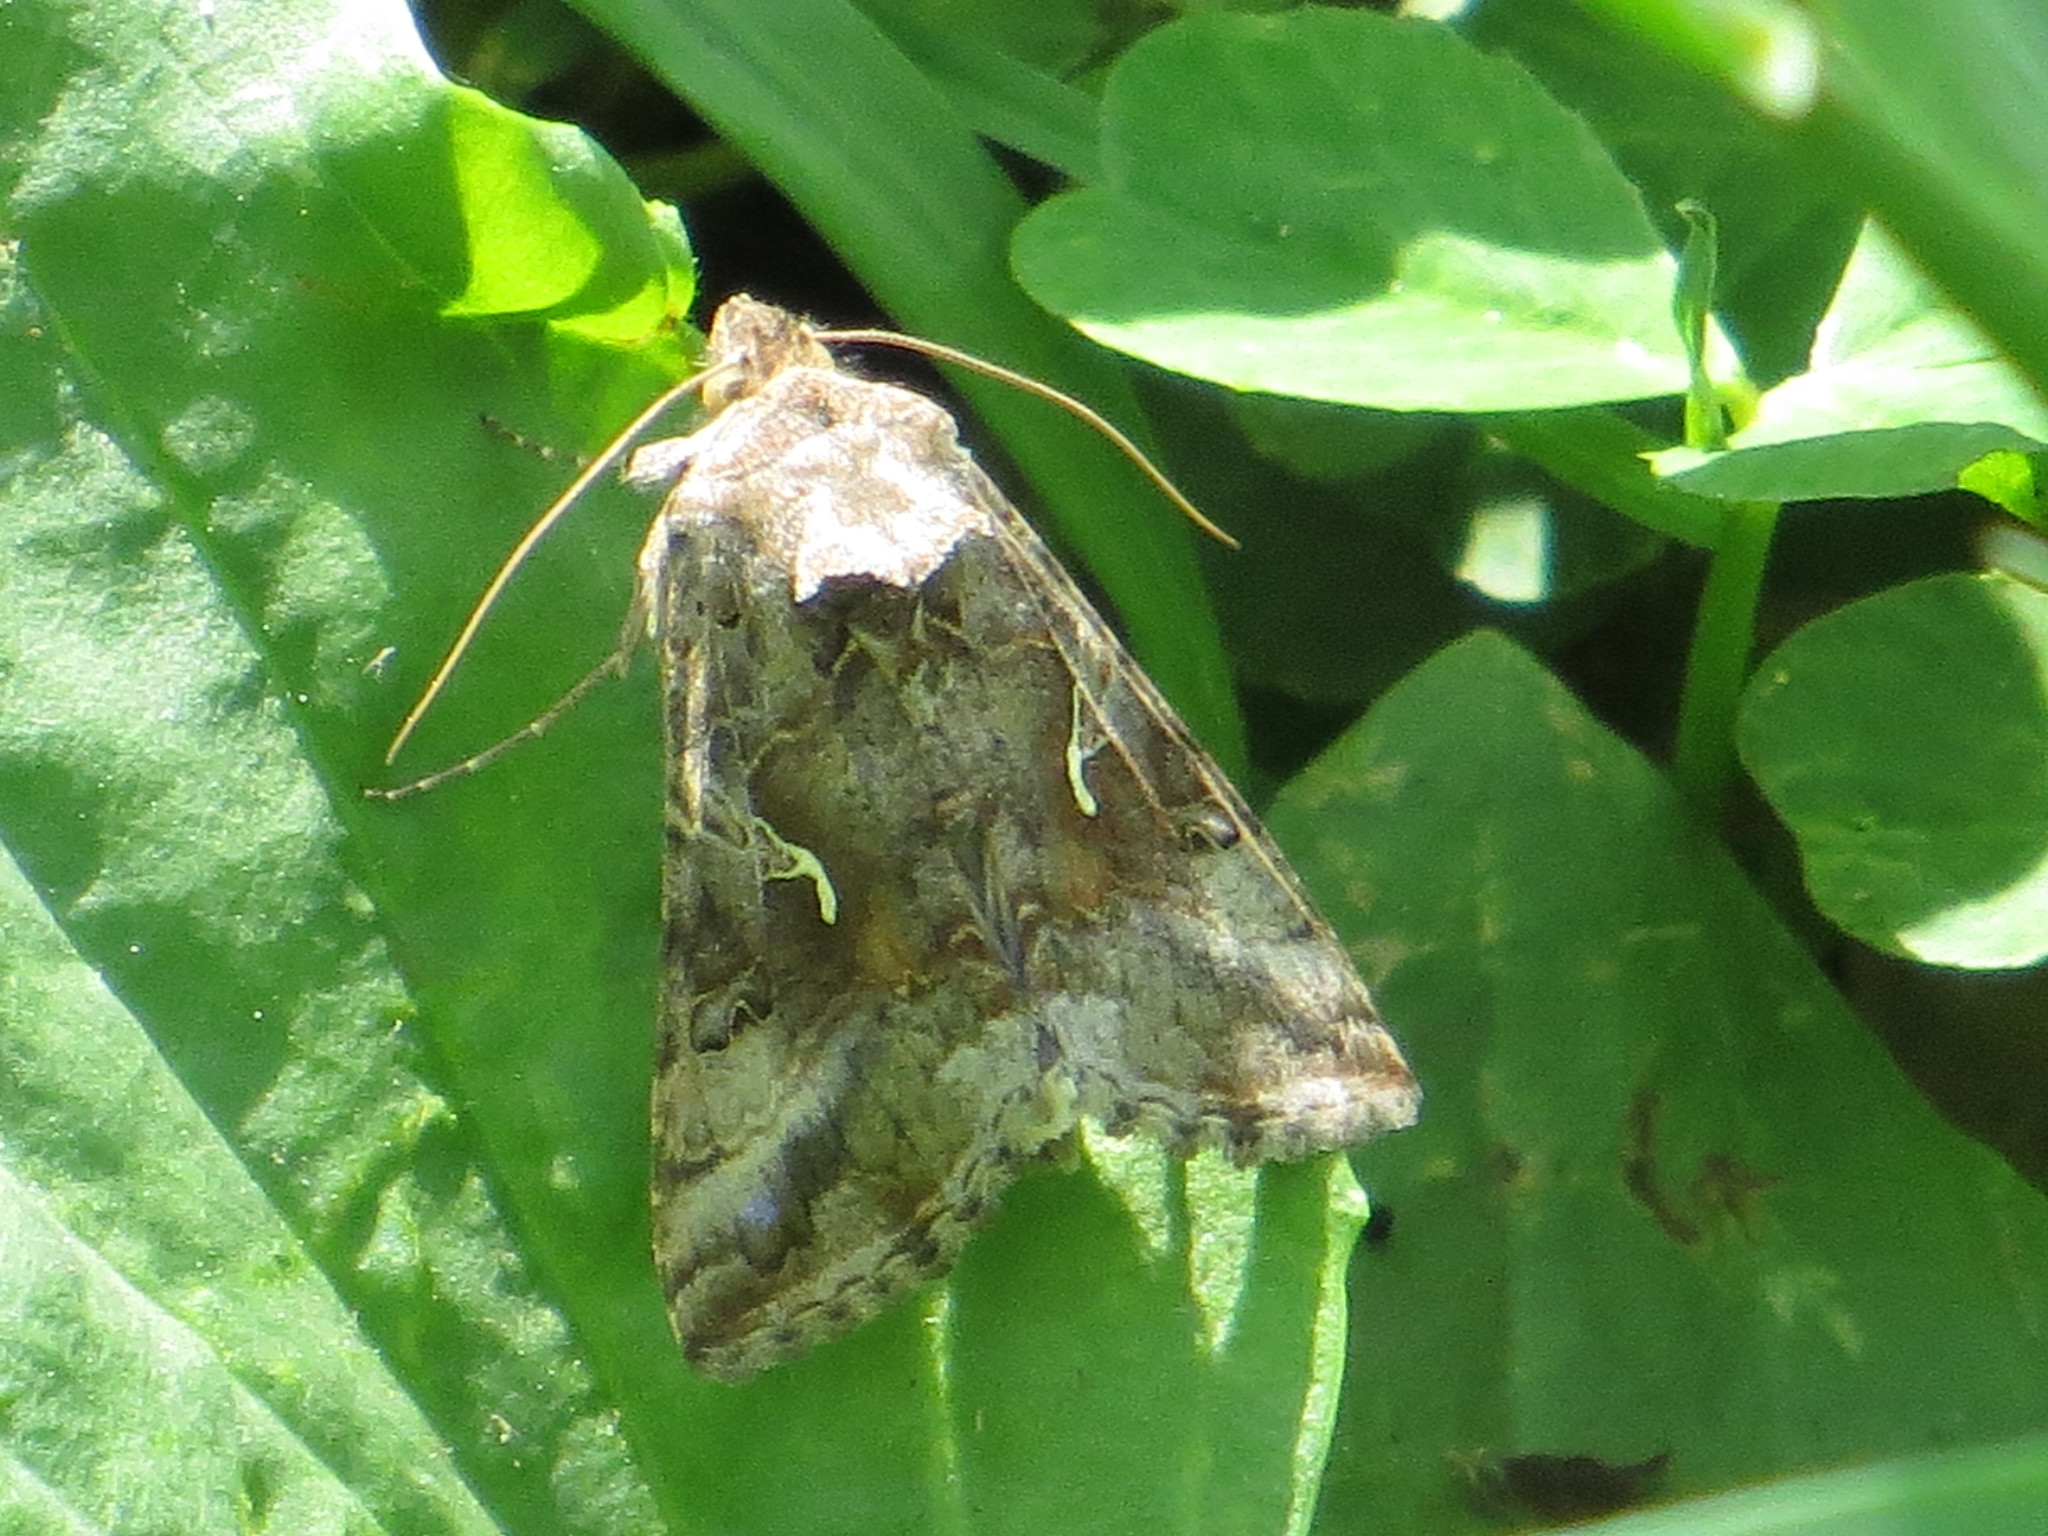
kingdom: Animalia
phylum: Arthropoda
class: Insecta
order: Lepidoptera
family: Noctuidae
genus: Autographa
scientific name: Autographa gamma
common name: Silver y
